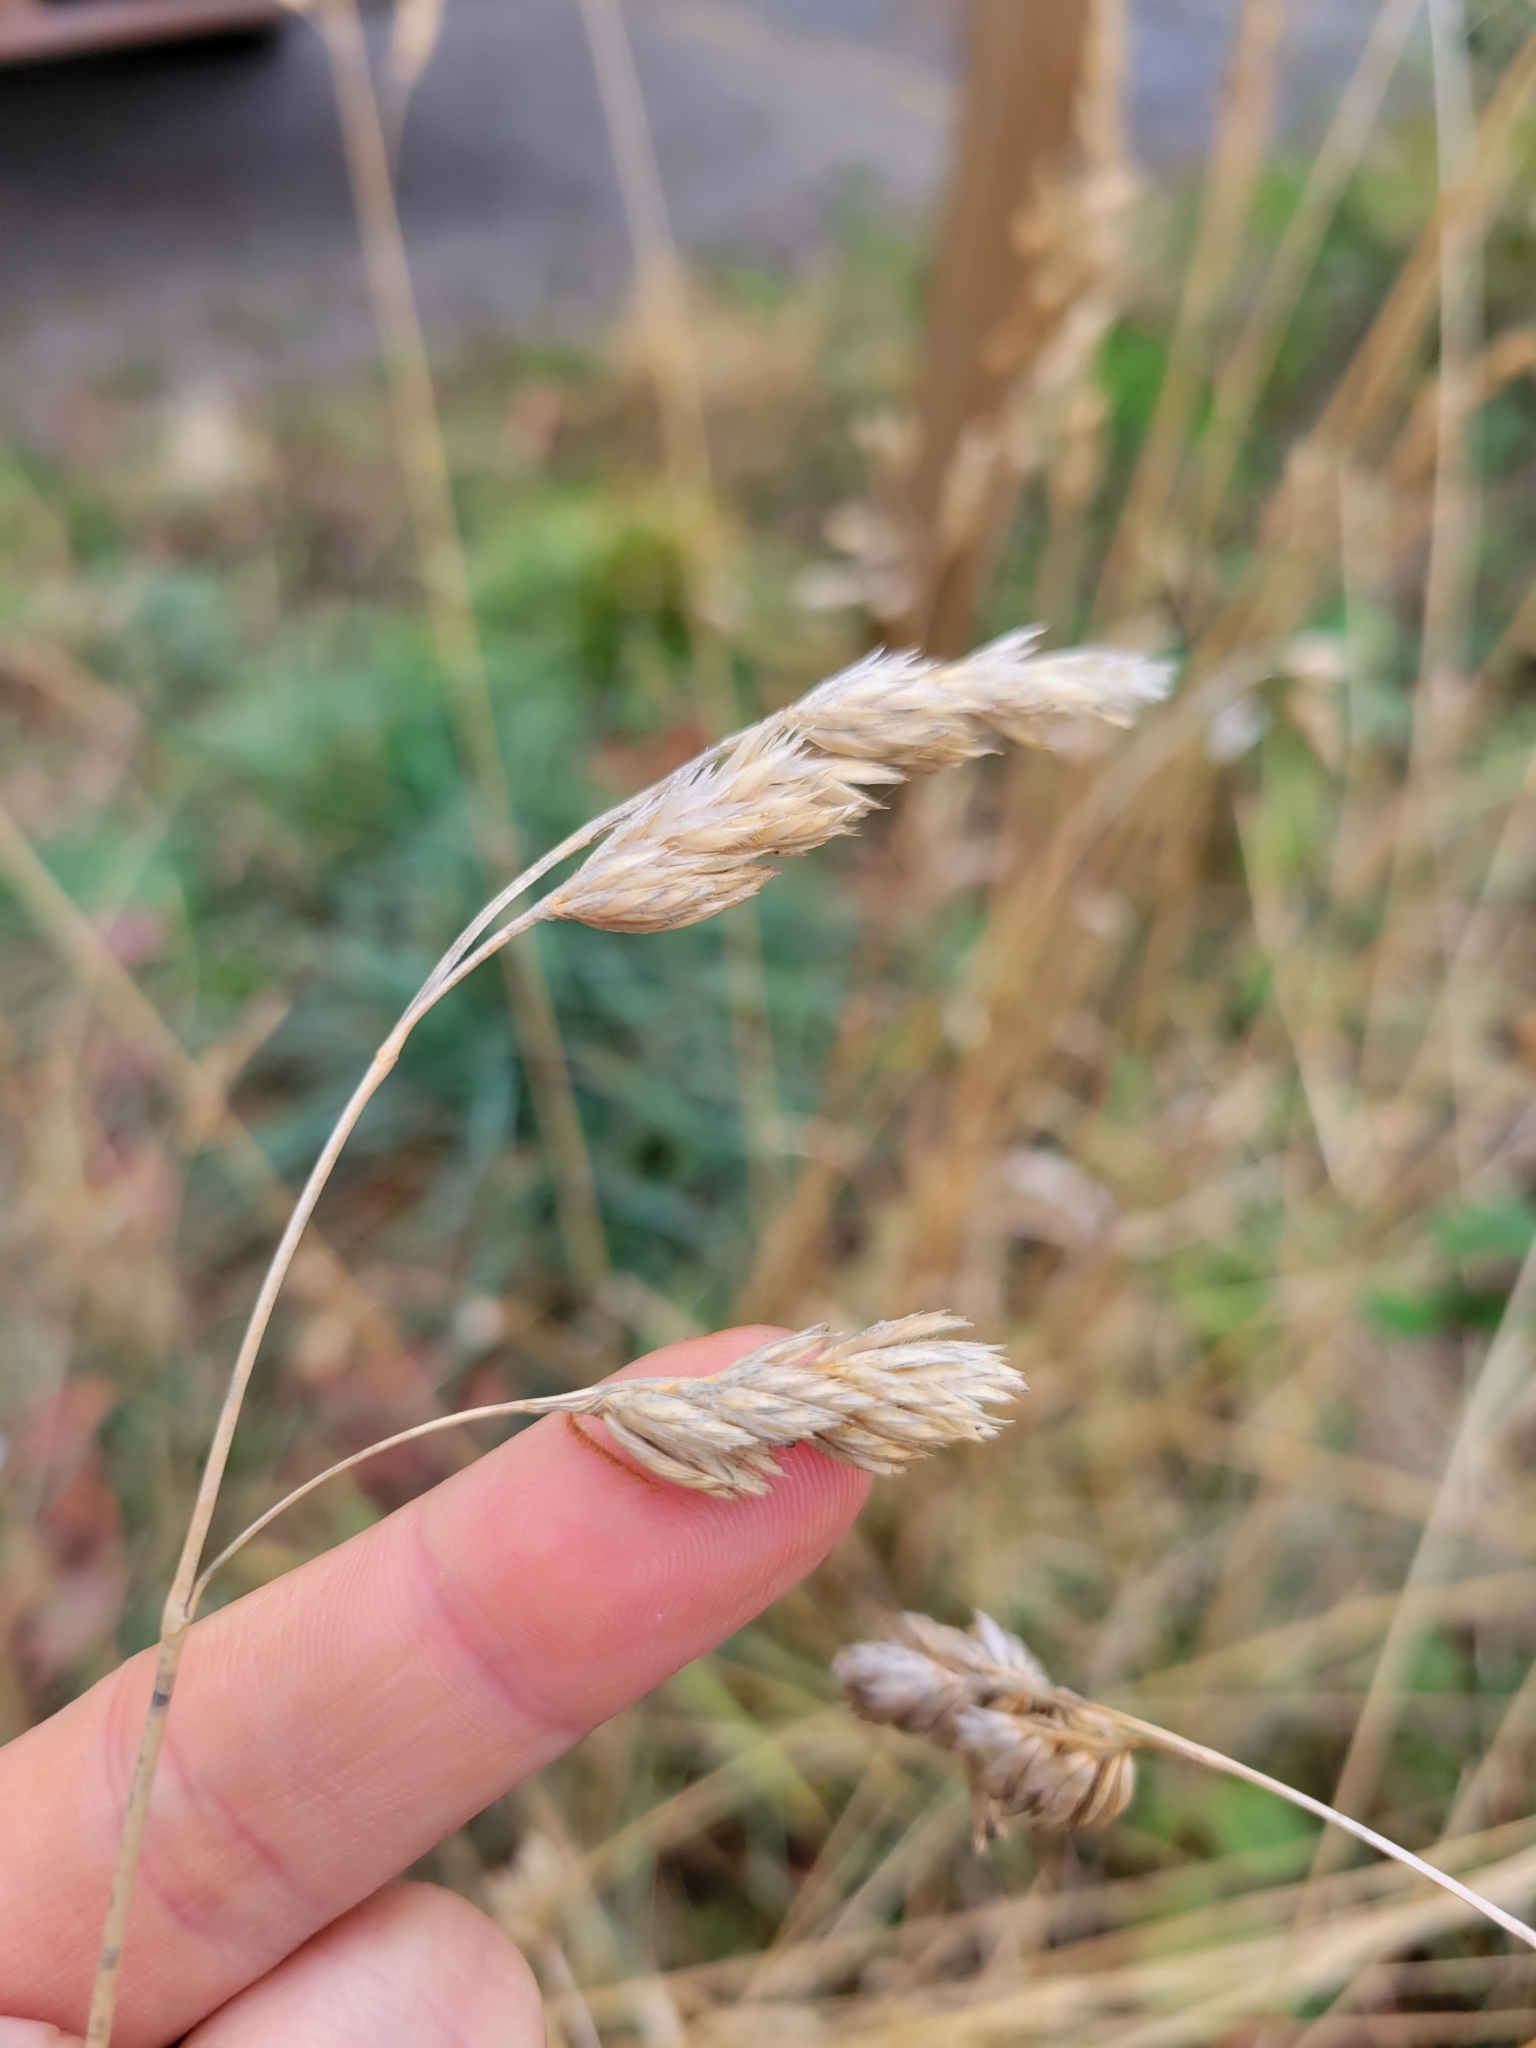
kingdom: Plantae
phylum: Tracheophyta
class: Liliopsida
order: Poales
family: Poaceae
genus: Dactylis
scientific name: Dactylis glomerata
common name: Orchardgrass
